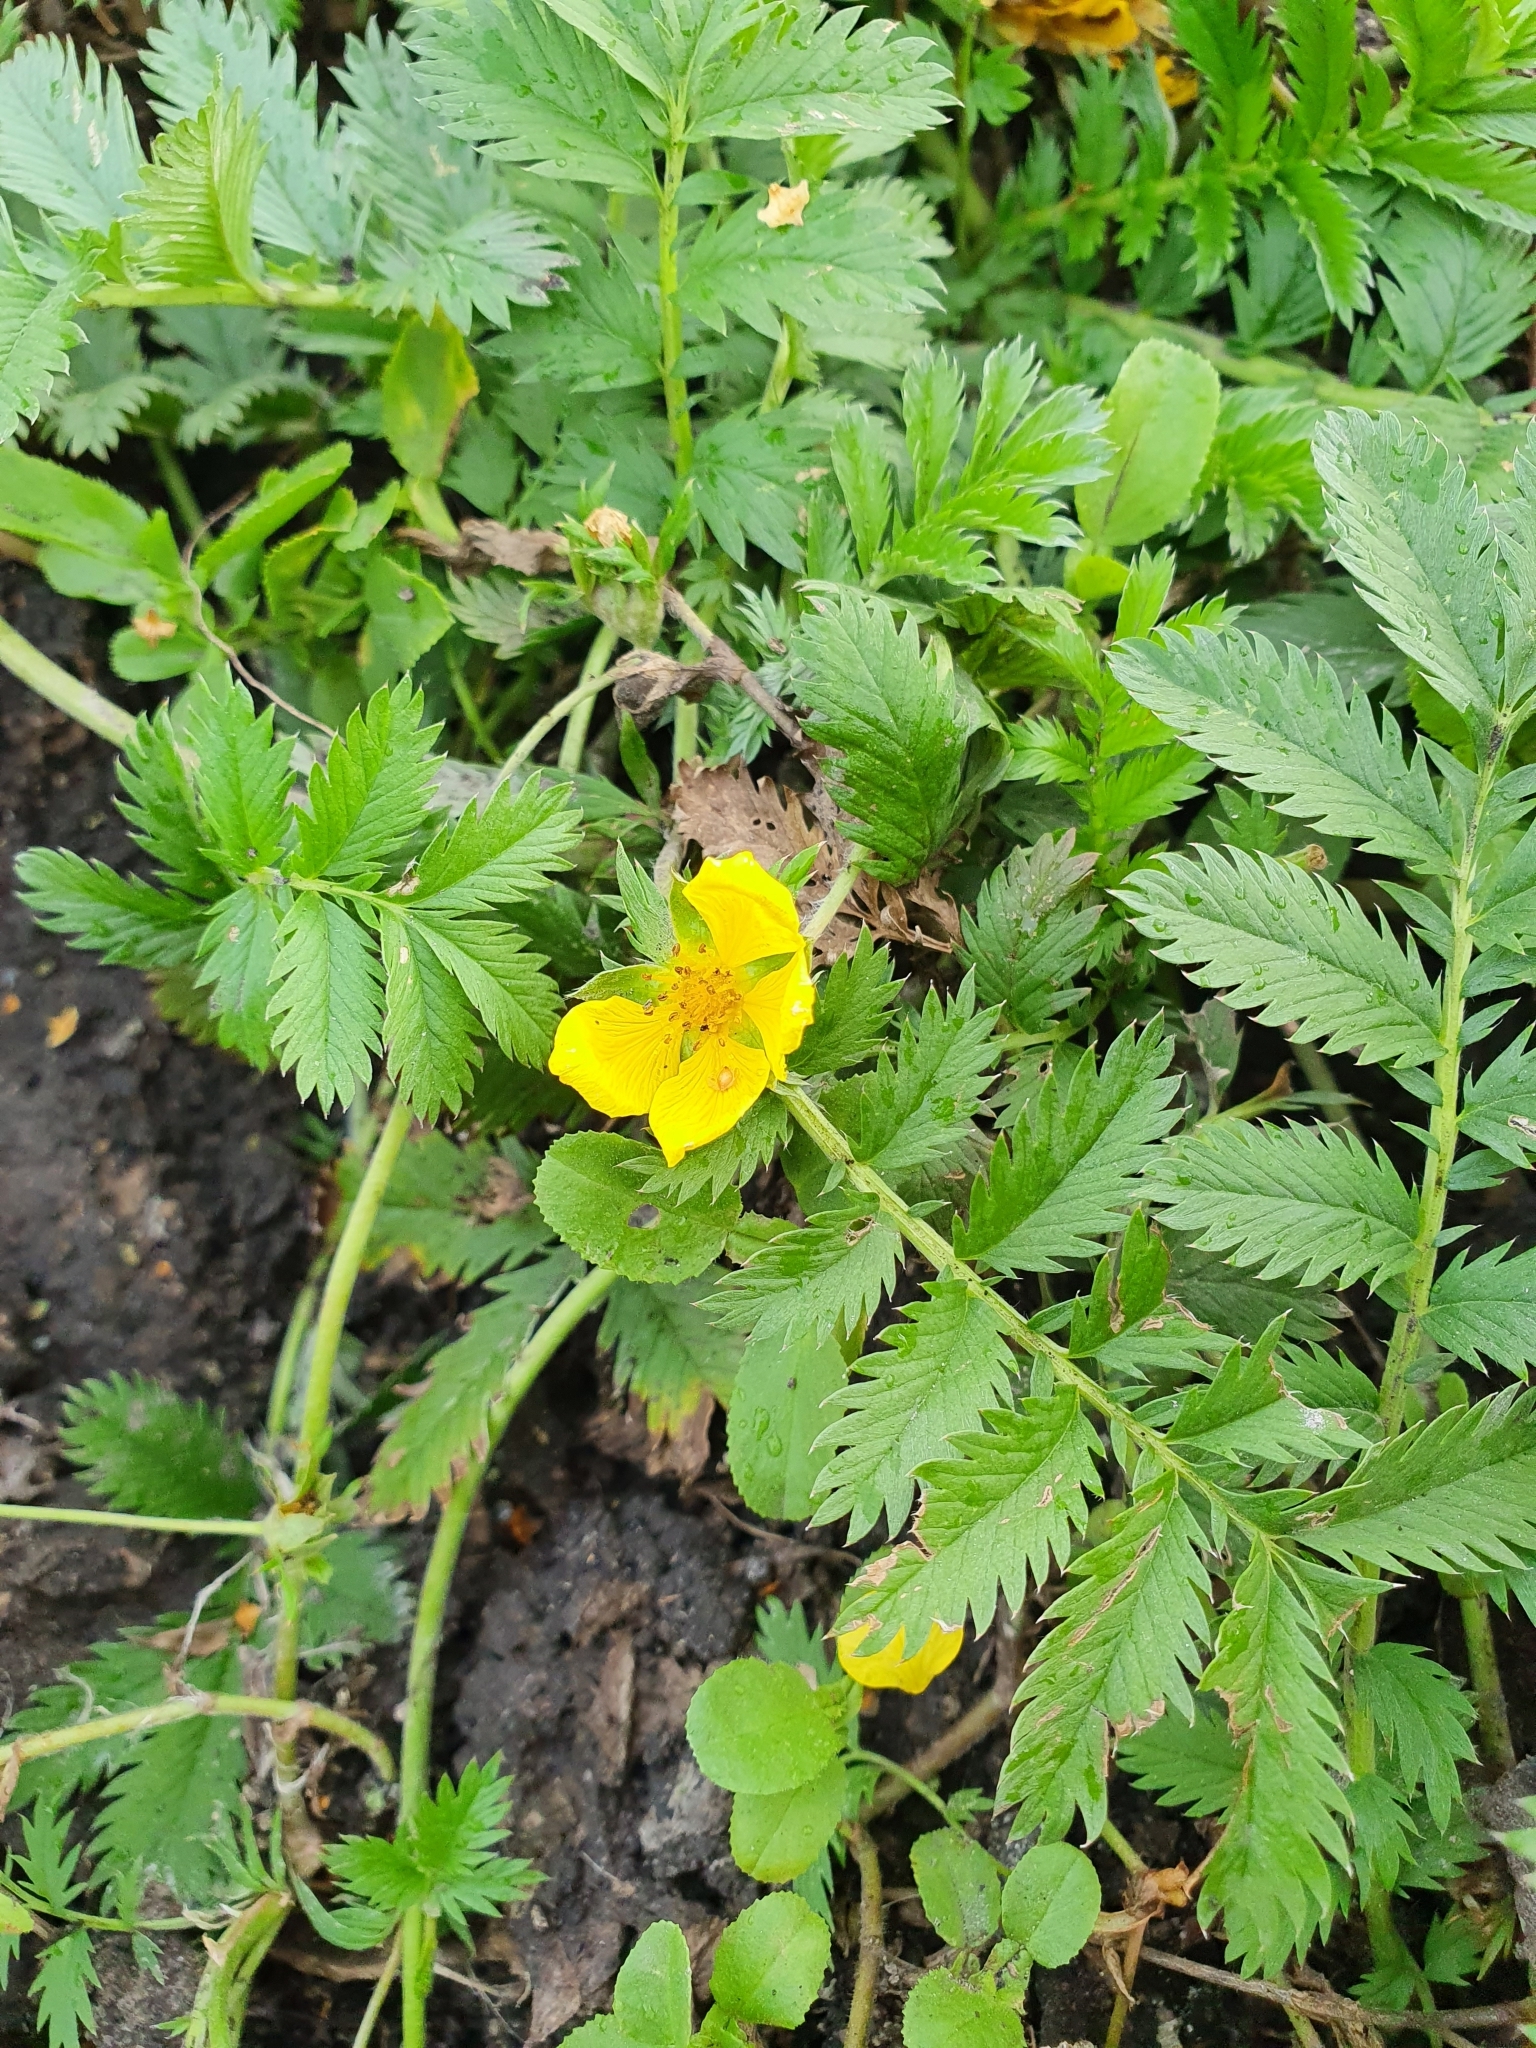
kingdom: Plantae
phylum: Tracheophyta
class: Magnoliopsida
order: Rosales
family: Rosaceae
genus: Argentina
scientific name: Argentina anserina
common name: Common silverweed
